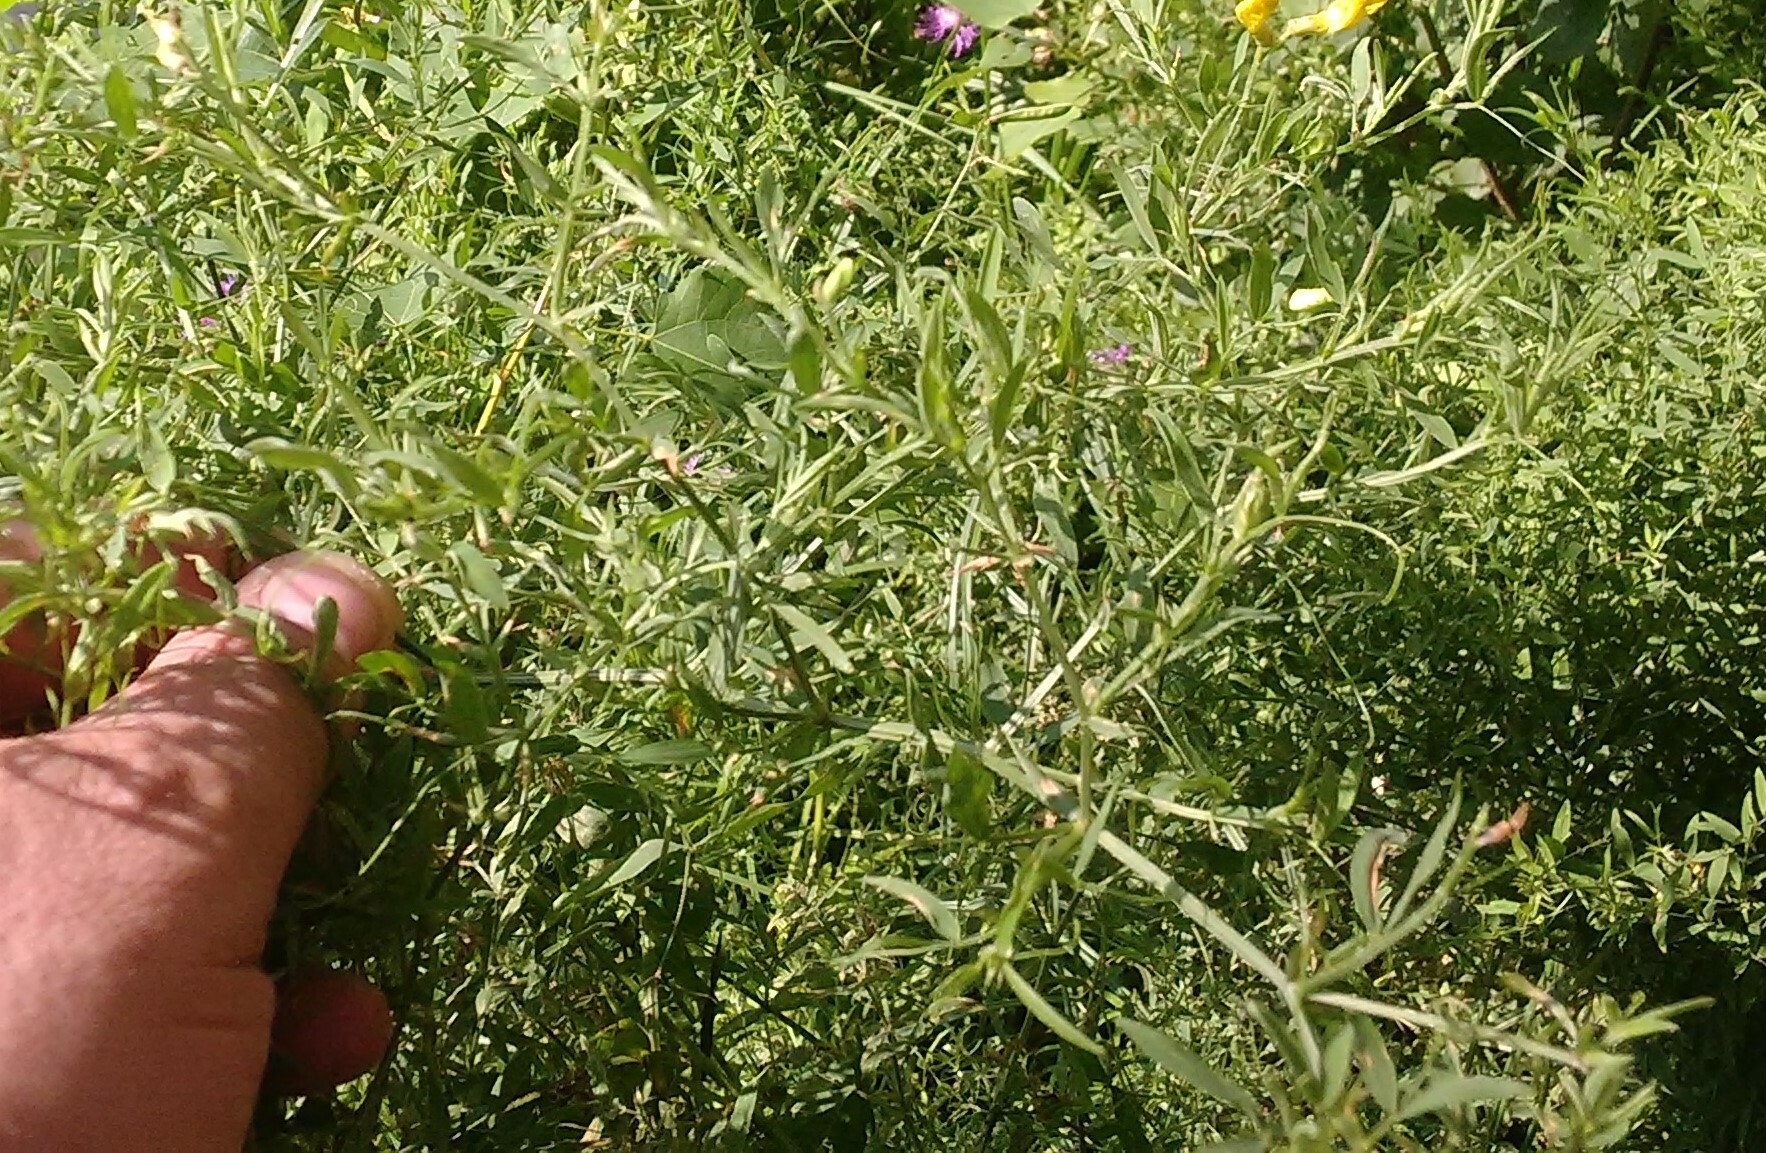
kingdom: Plantae
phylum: Tracheophyta
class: Magnoliopsida
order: Fabales
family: Fabaceae
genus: Lathyrus
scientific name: Lathyrus pratensis
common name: Meadow vetchling
